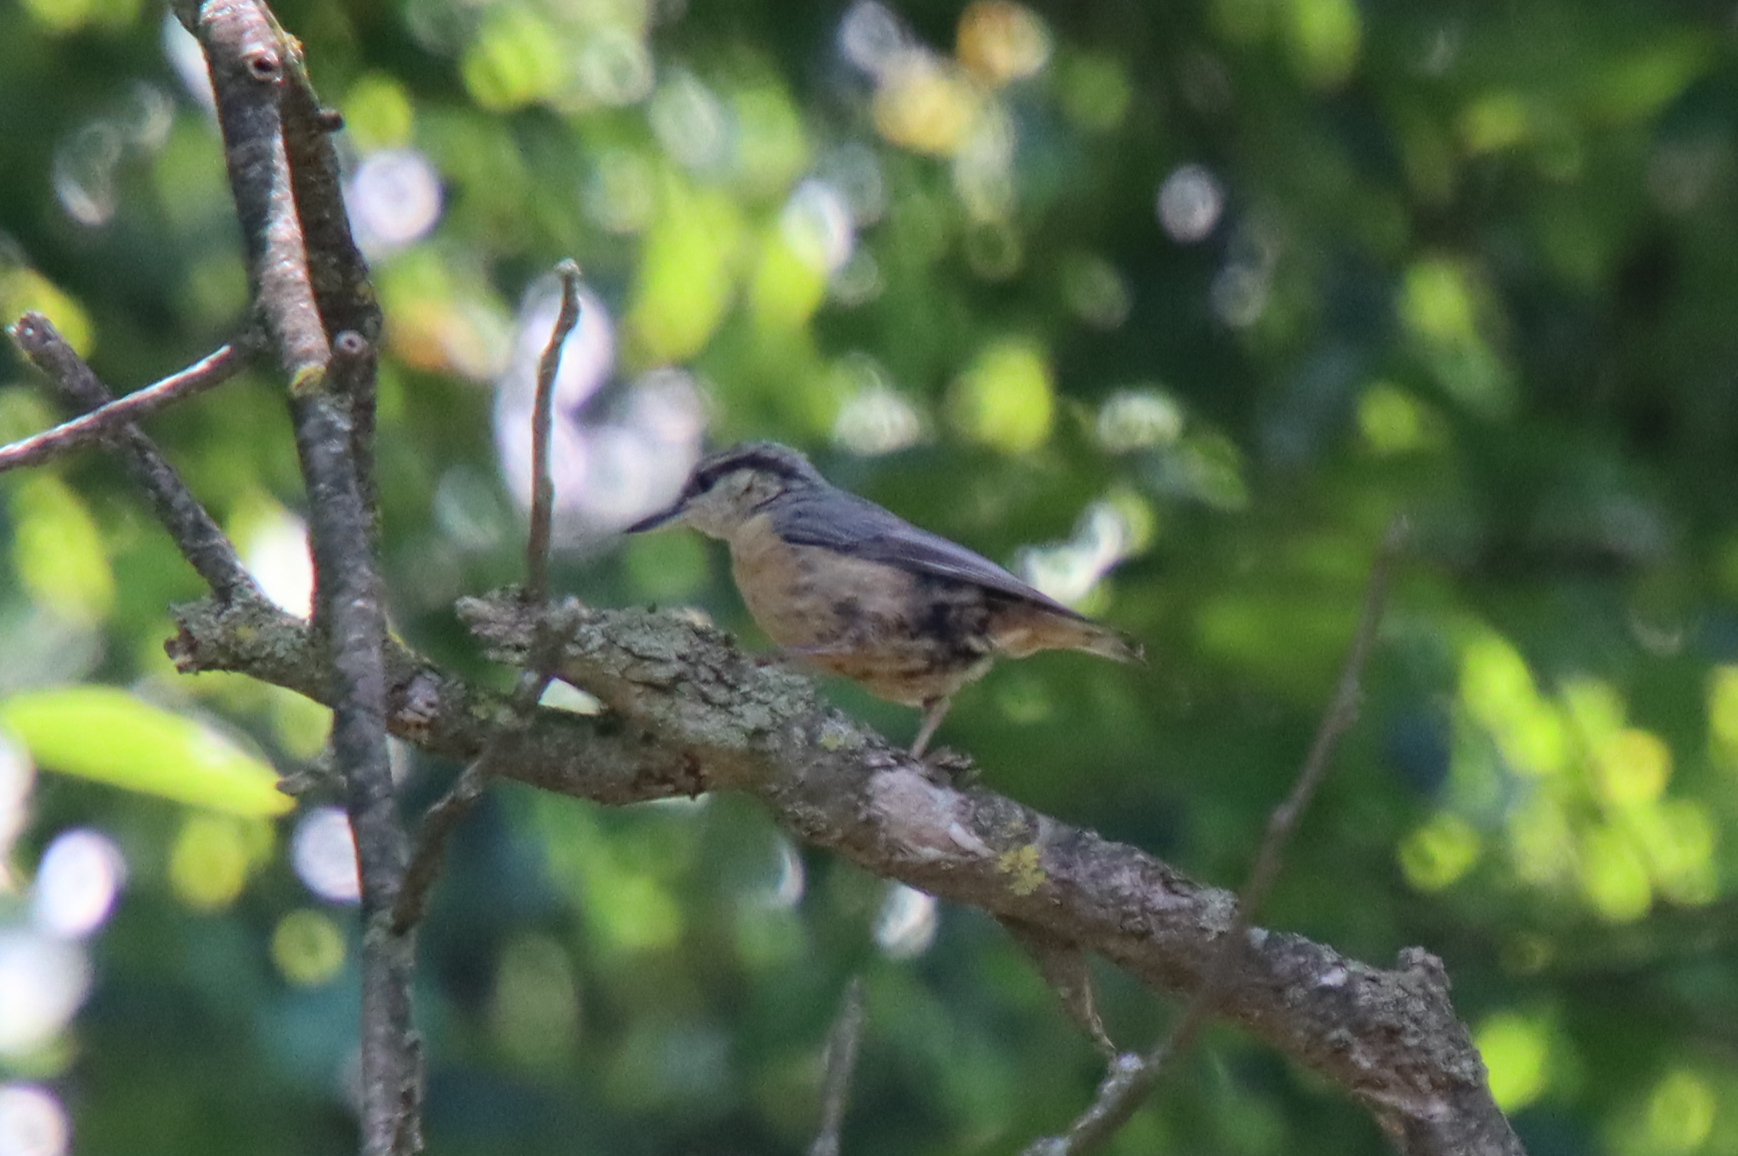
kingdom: Animalia
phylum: Chordata
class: Aves
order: Passeriformes
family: Sittidae
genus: Sitta
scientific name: Sitta europaea
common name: Eurasian nuthatch
